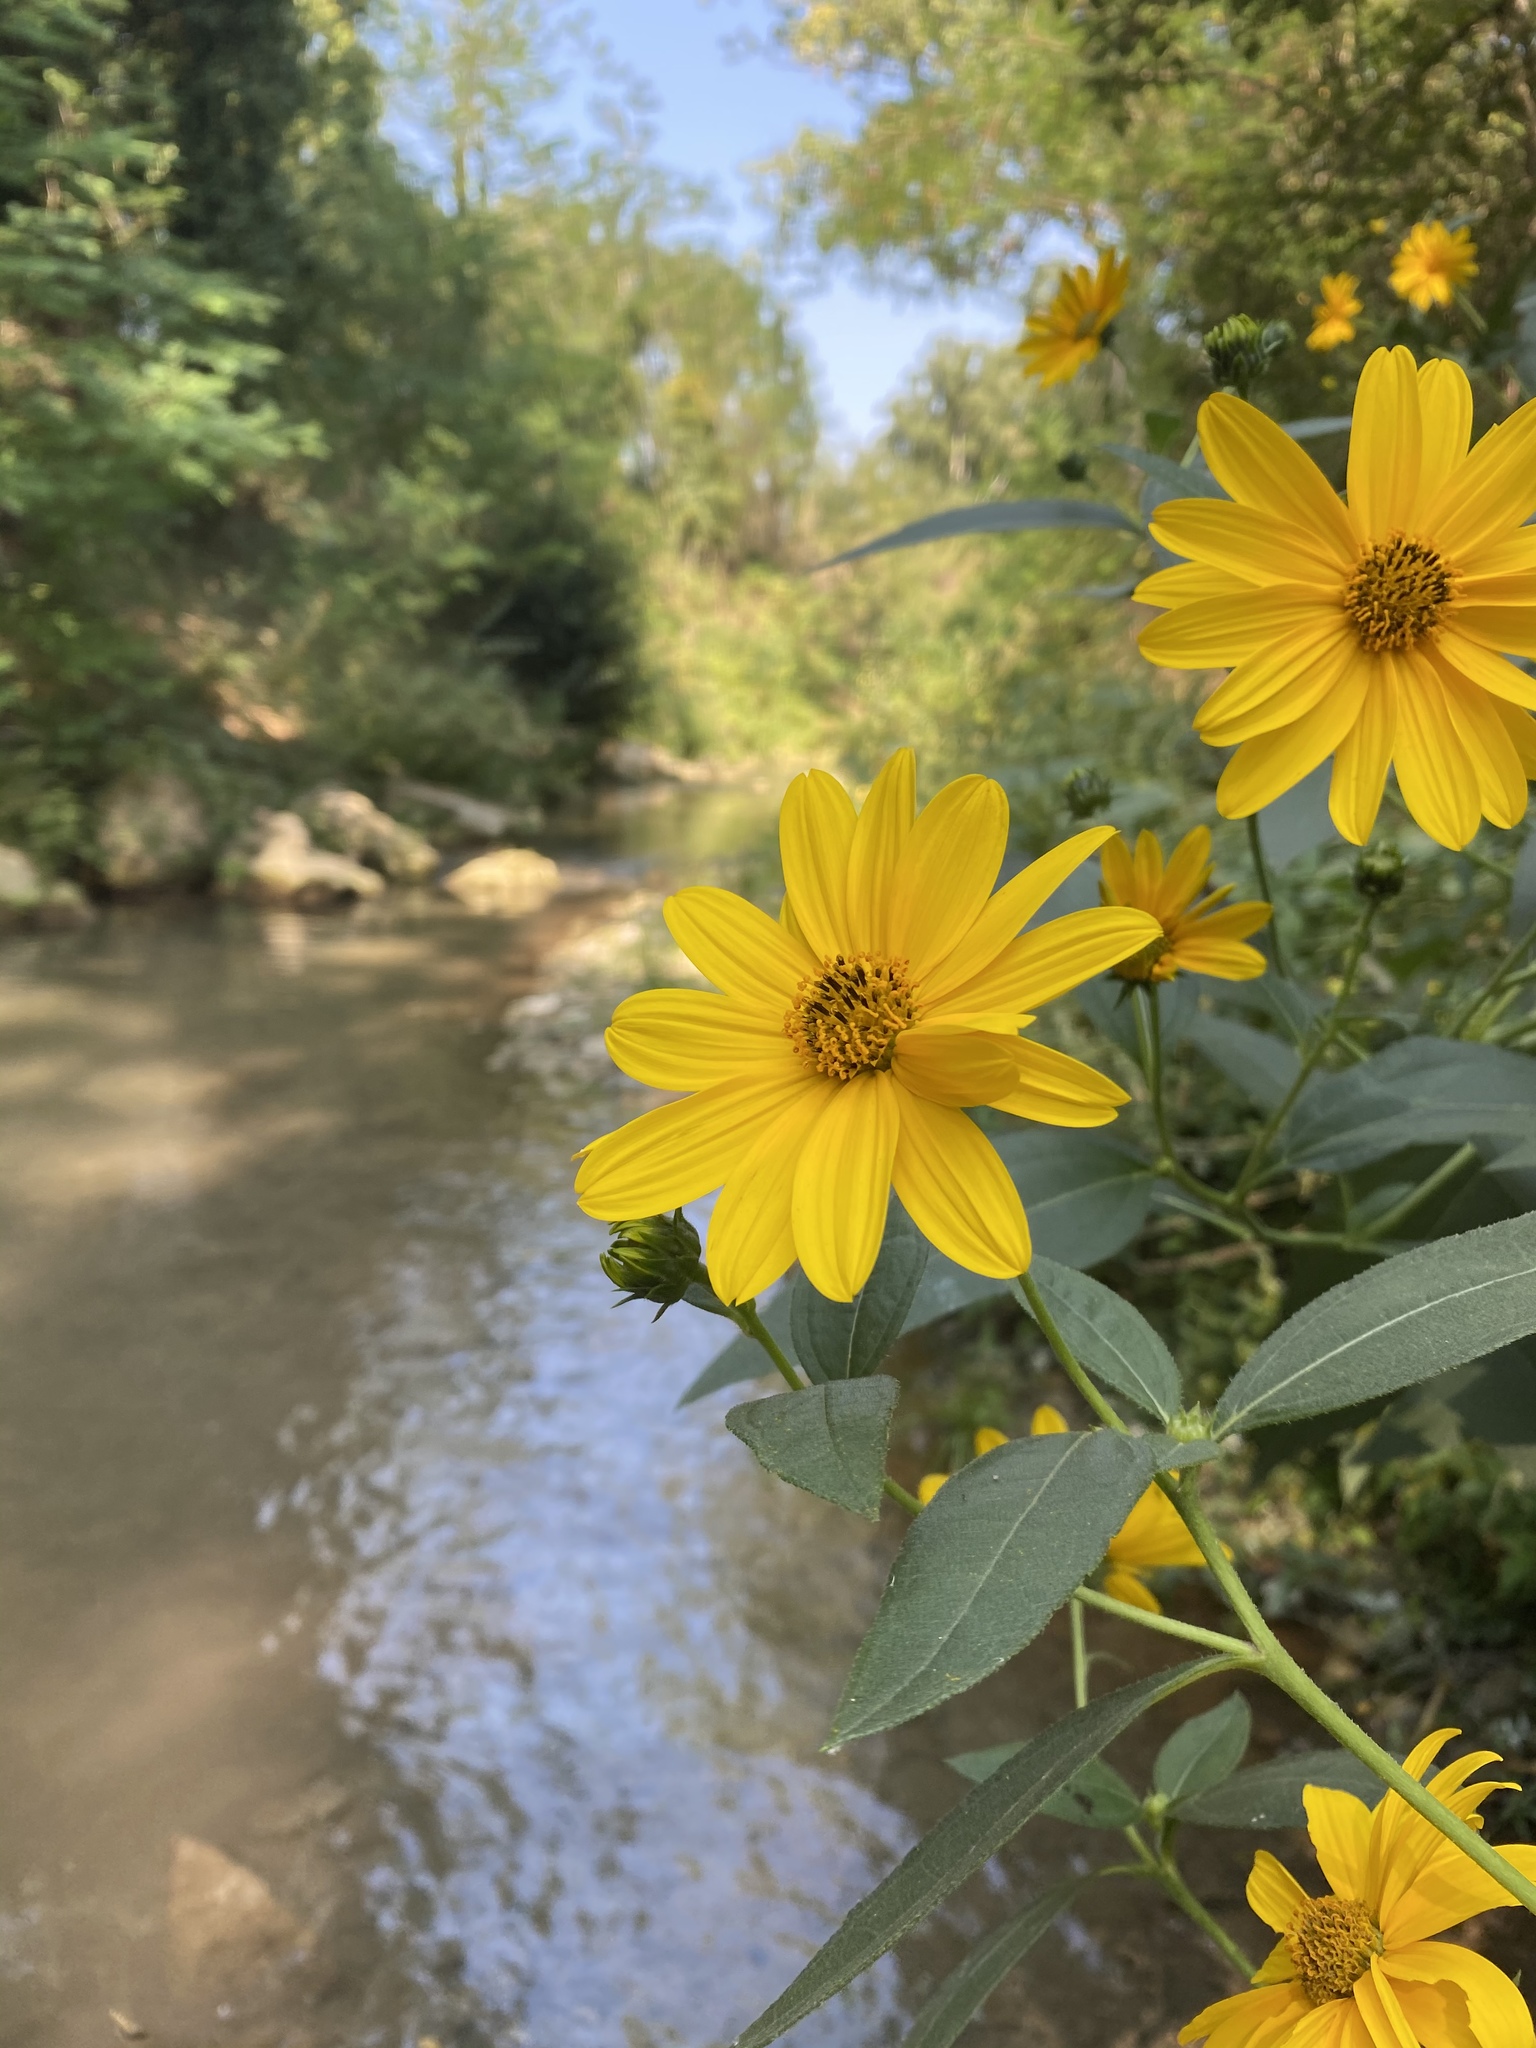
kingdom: Plantae
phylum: Tracheophyta
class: Magnoliopsida
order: Asterales
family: Asteraceae
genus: Helianthus
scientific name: Helianthus laetiflorus
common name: Perennial sunflower
